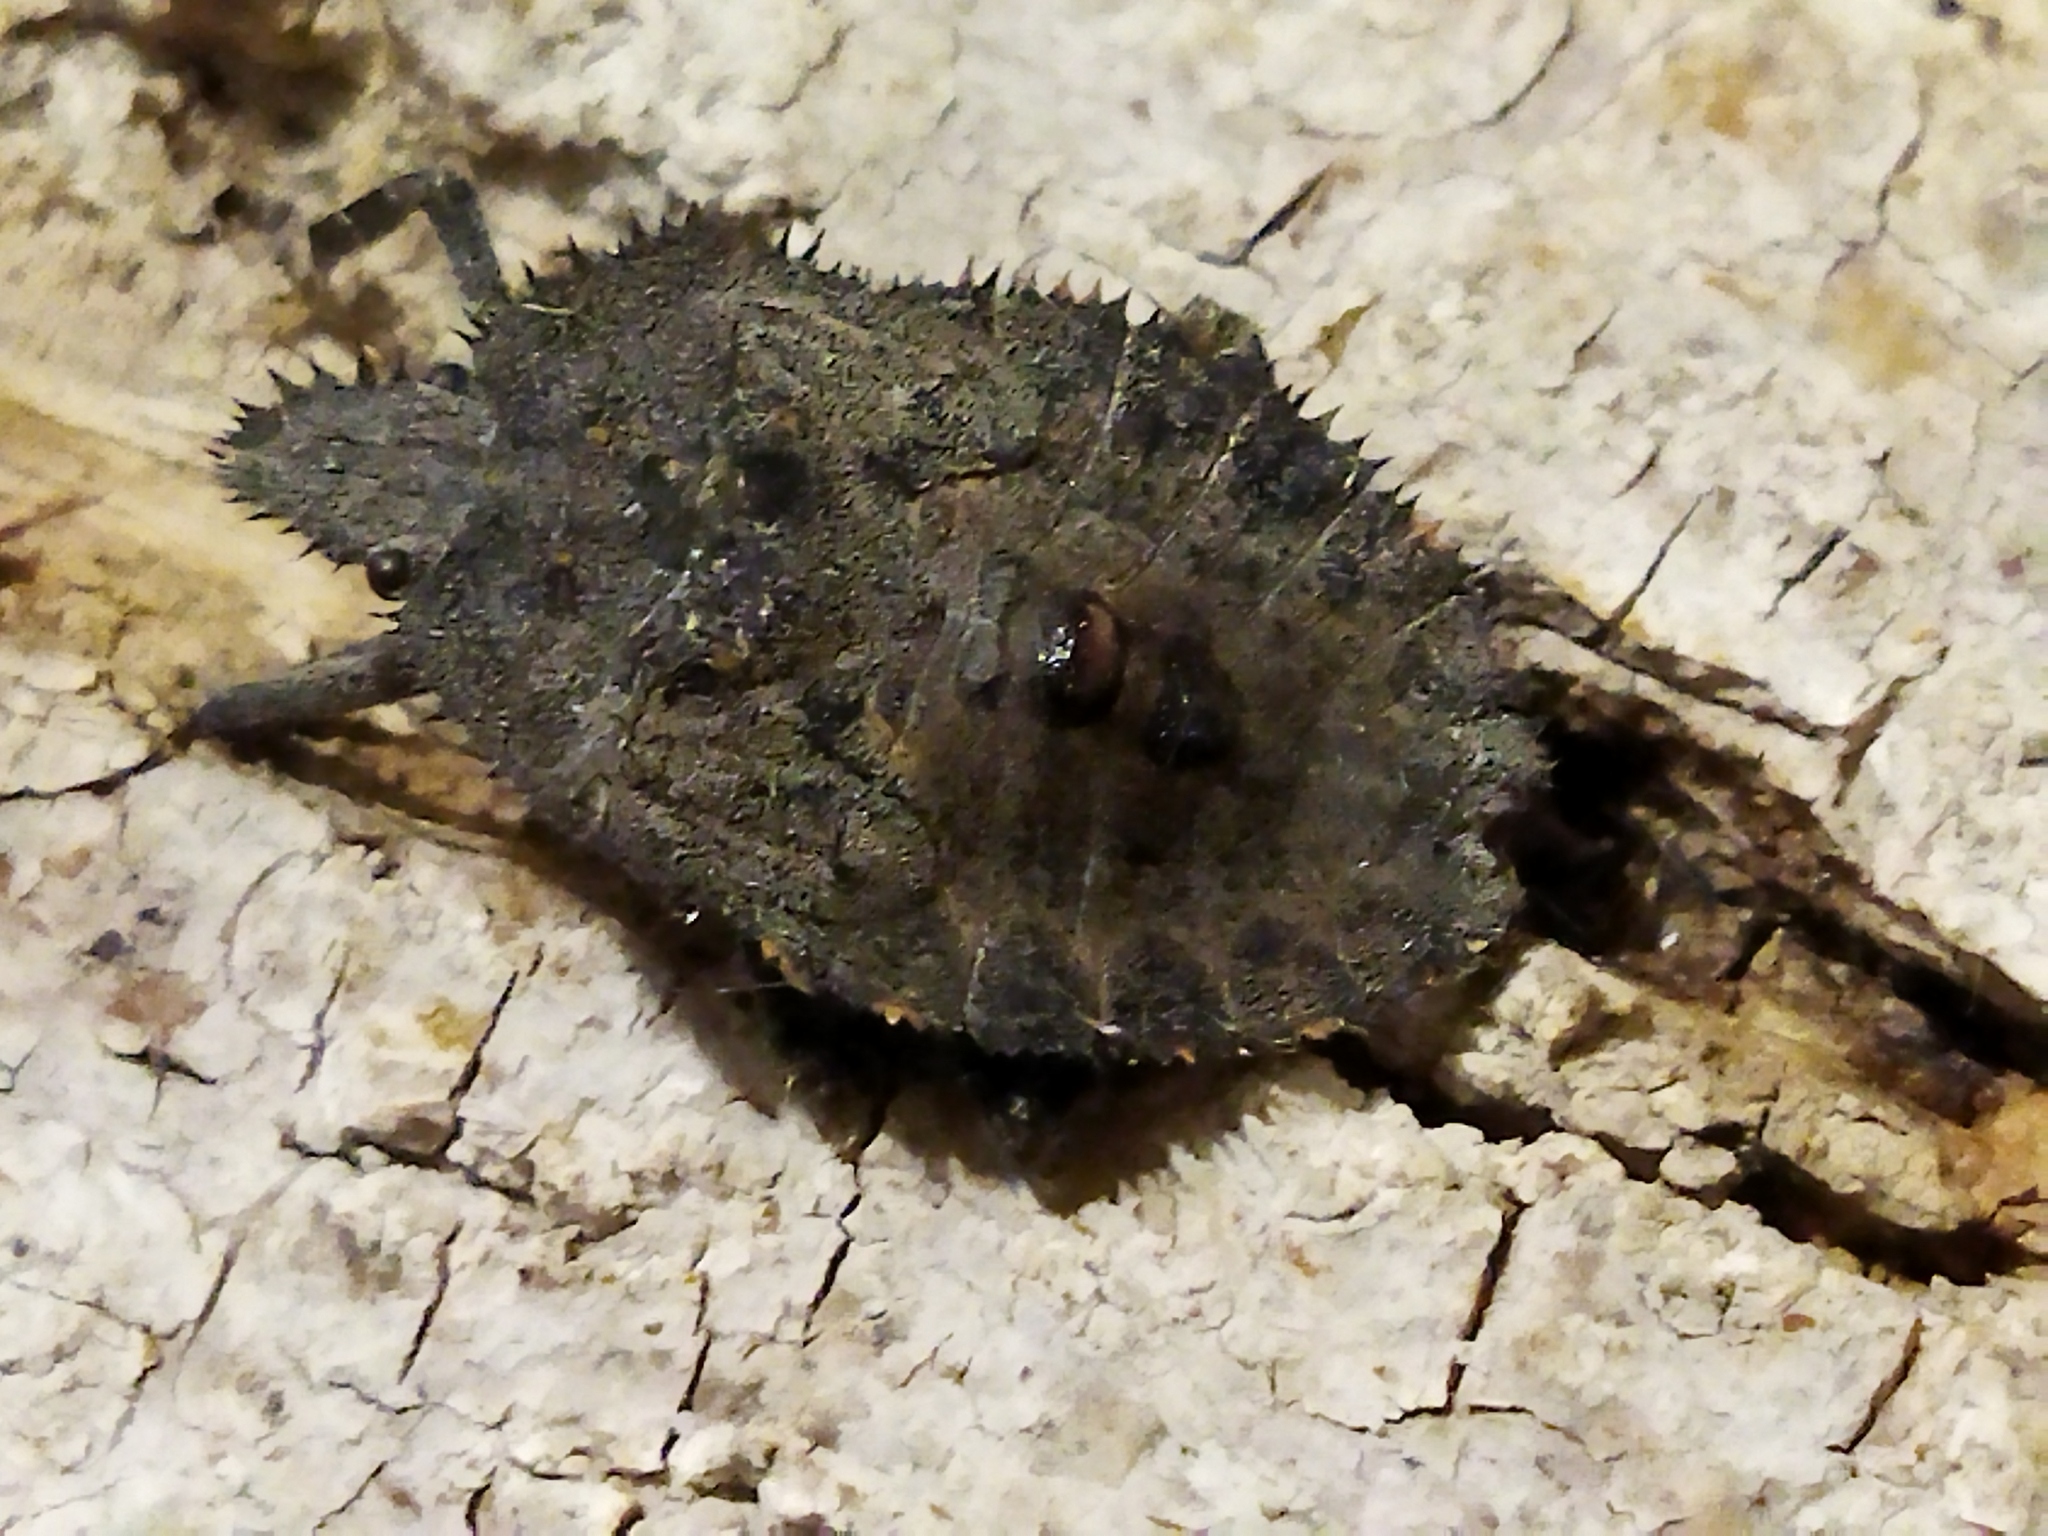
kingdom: Animalia
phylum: Arthropoda
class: Insecta
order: Hemiptera
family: Pentatomidae
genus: Mustha
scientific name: Mustha spinosula
